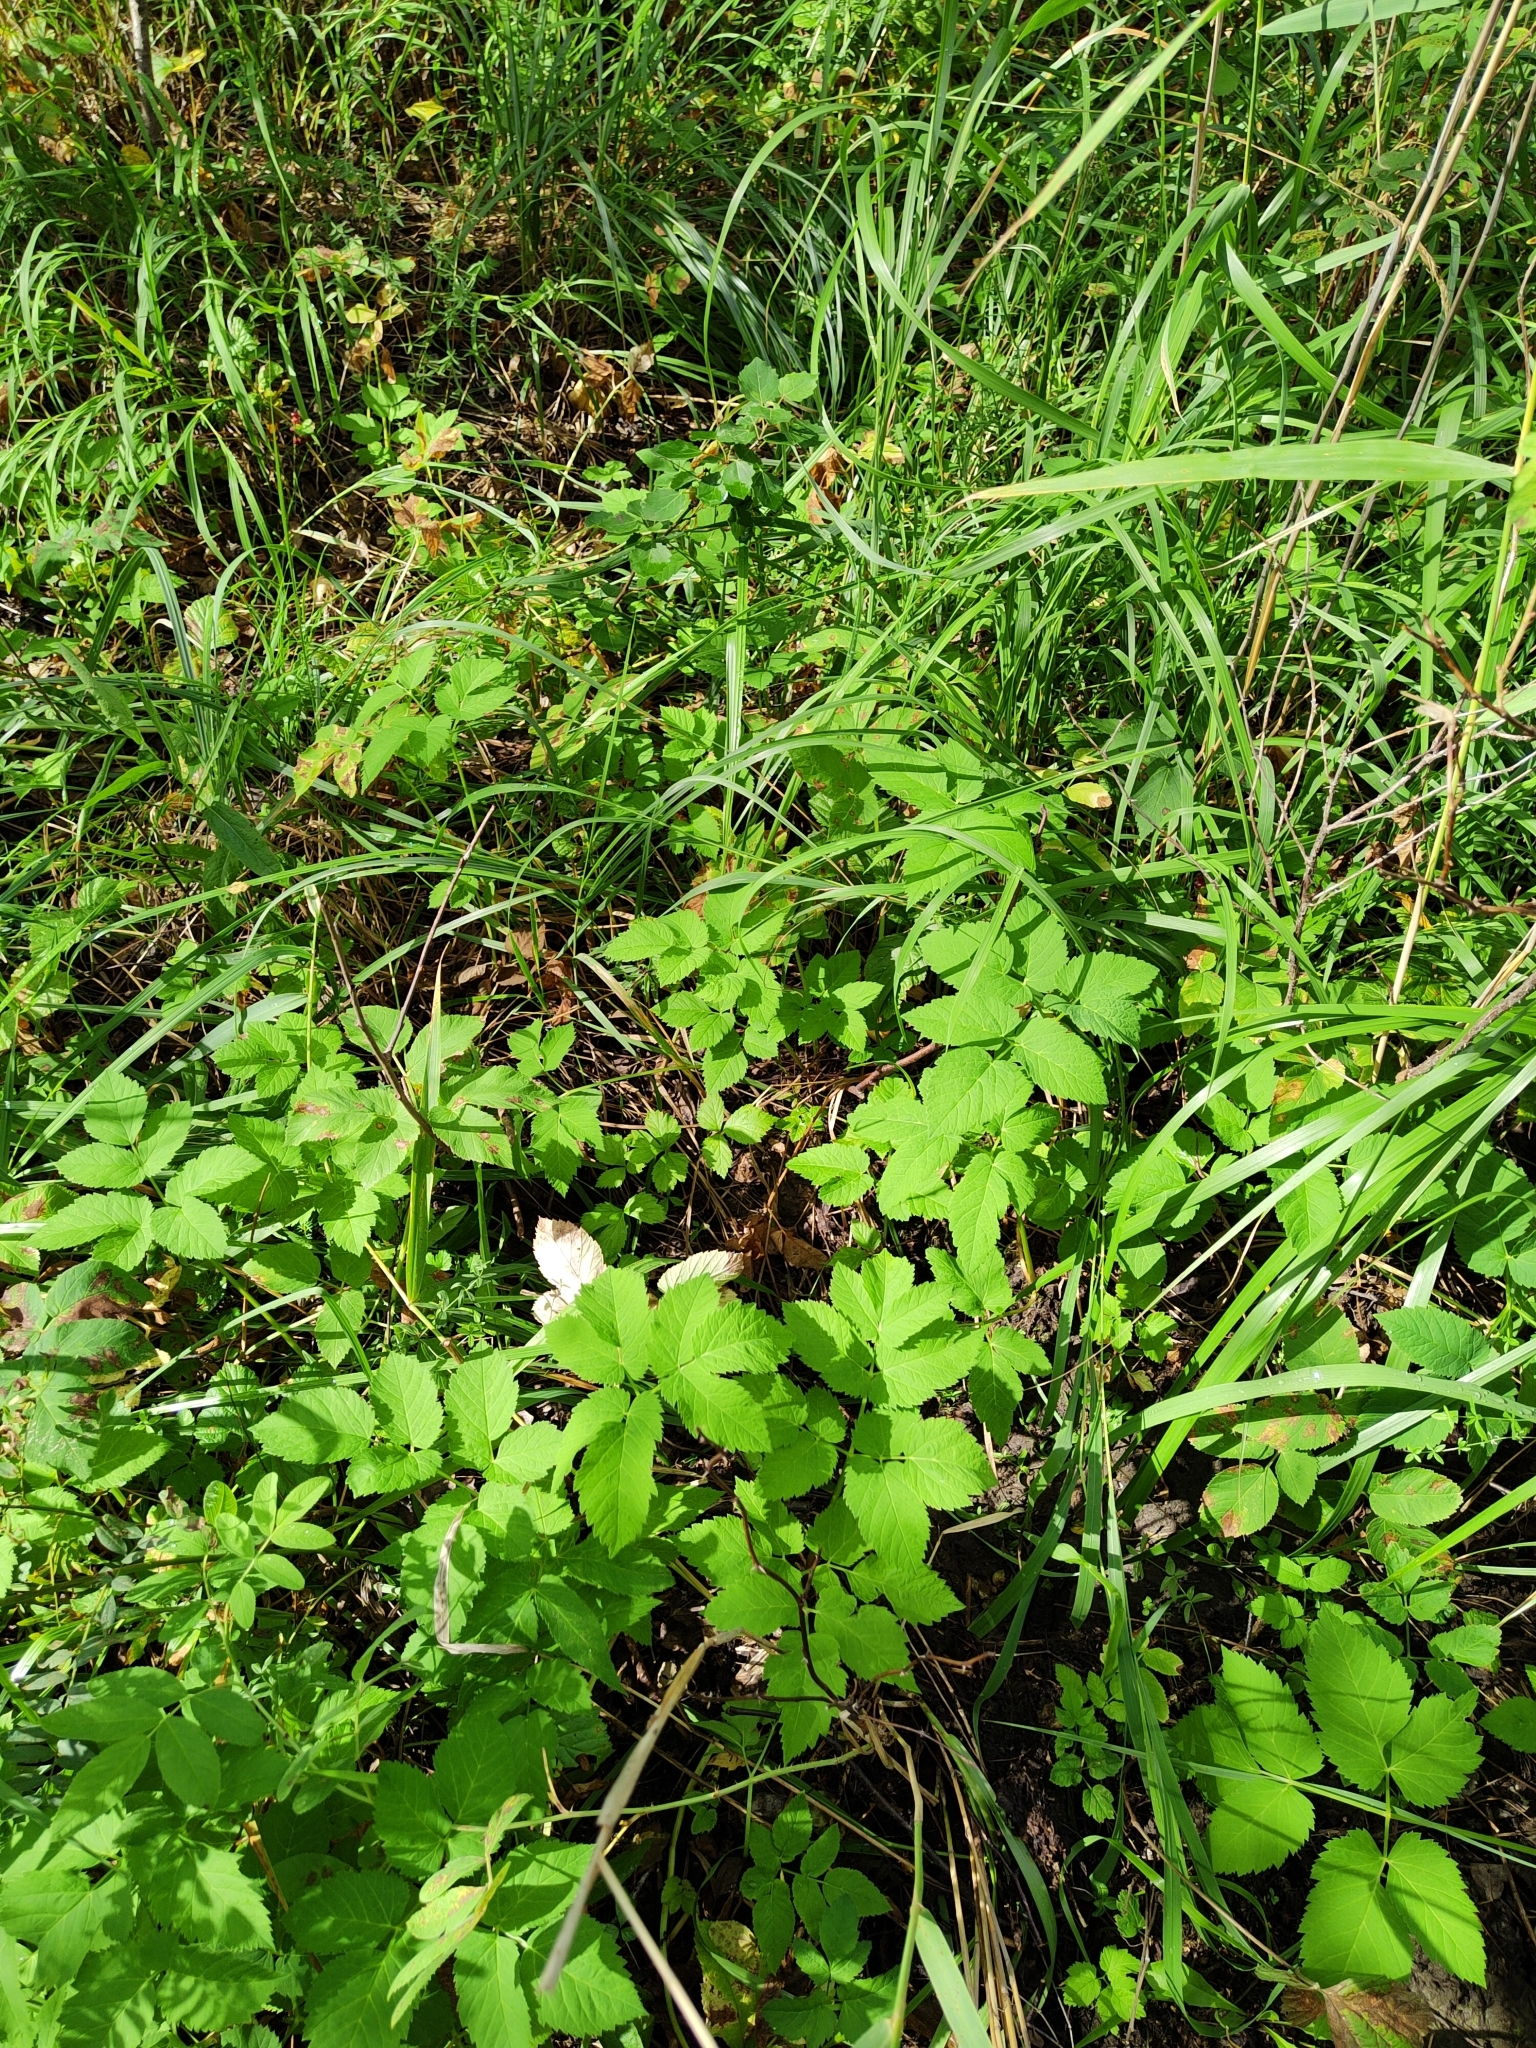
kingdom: Plantae
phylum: Tracheophyta
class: Magnoliopsida
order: Apiales
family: Apiaceae
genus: Aegopodium
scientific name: Aegopodium podagraria
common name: Ground-elder
